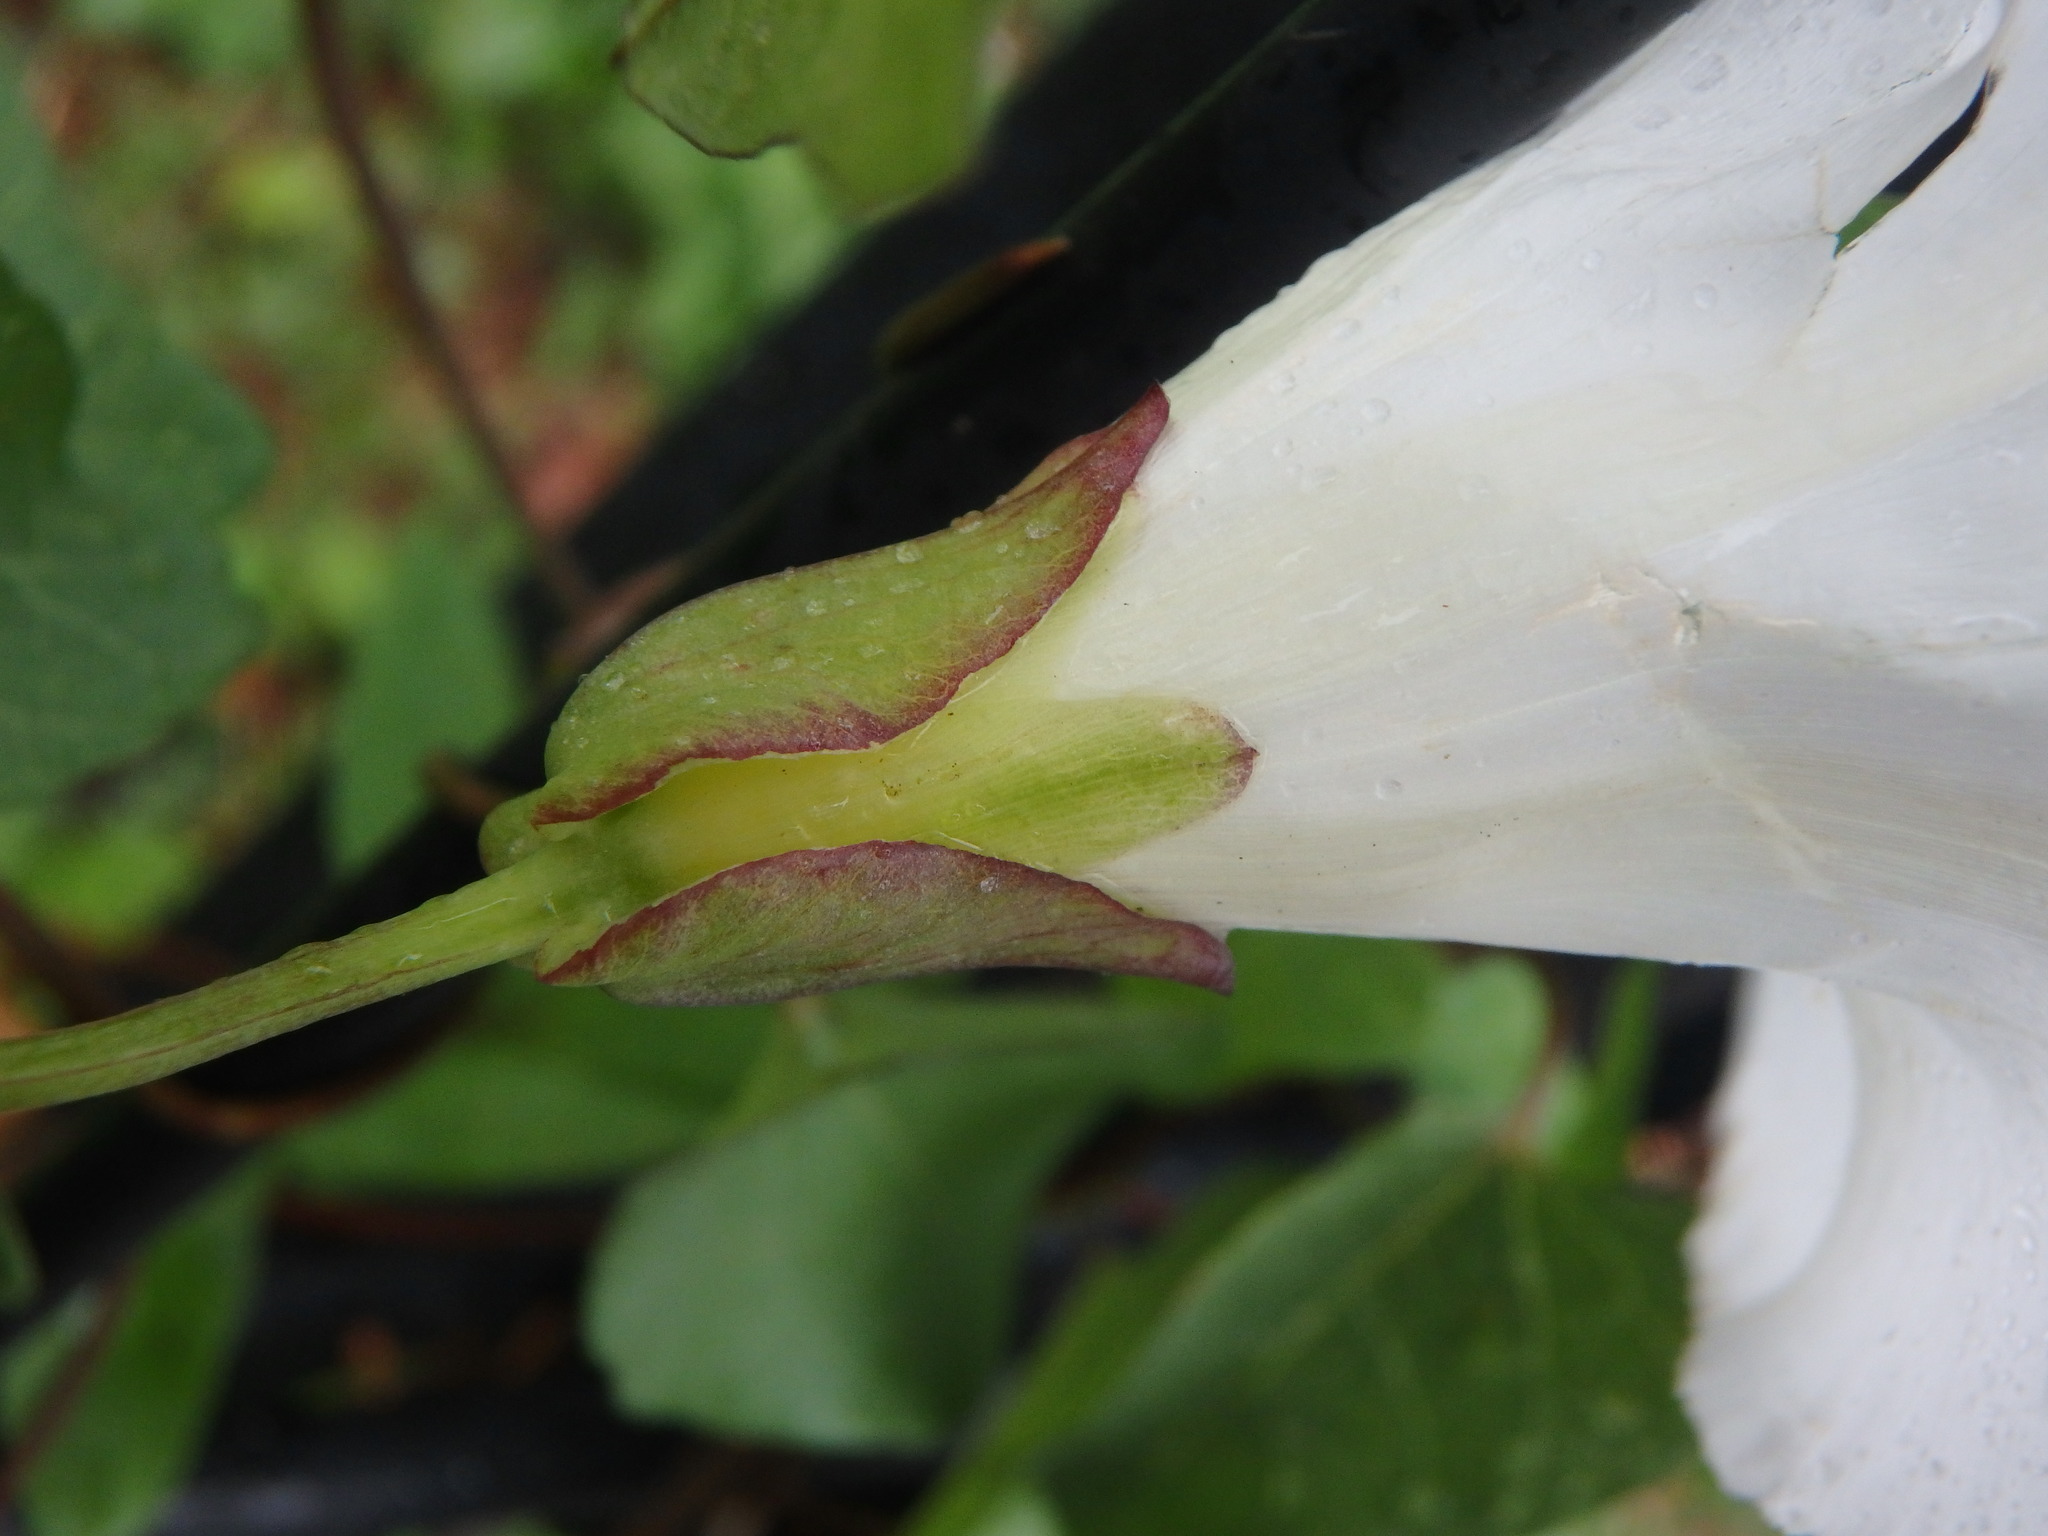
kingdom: Plantae
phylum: Tracheophyta
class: Magnoliopsida
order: Solanales
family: Convolvulaceae
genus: Calystegia
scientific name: Calystegia sepium
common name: Hedge bindweed
